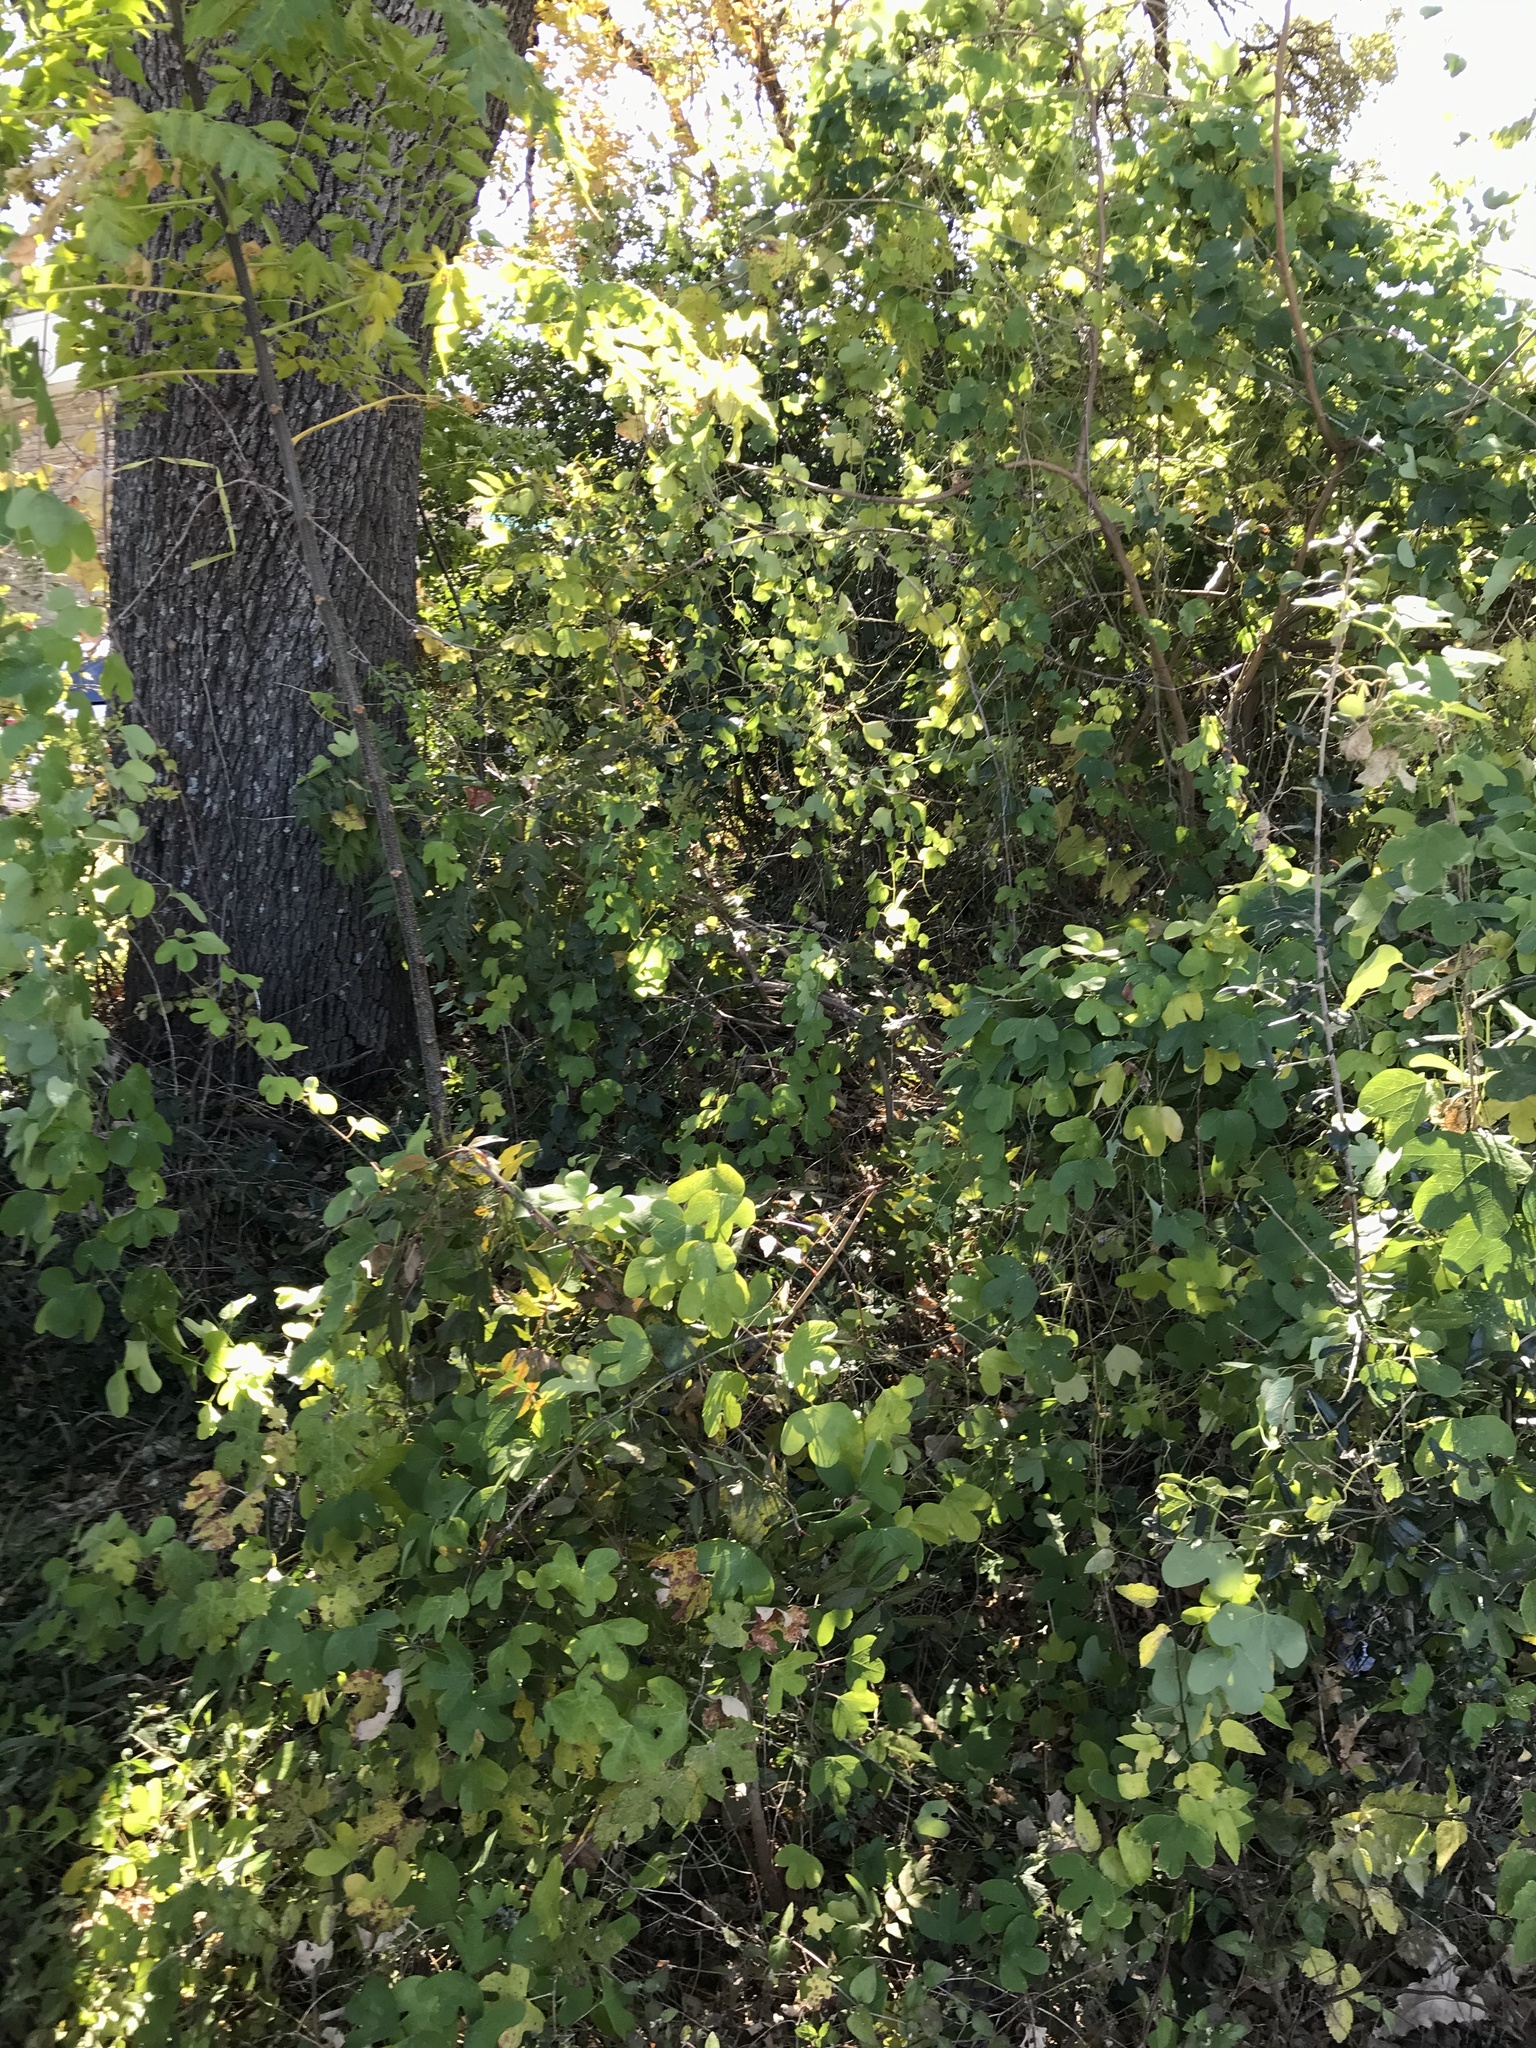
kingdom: Plantae
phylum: Tracheophyta
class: Magnoliopsida
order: Malpighiales
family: Passifloraceae
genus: Passiflora
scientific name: Passiflora affinis
